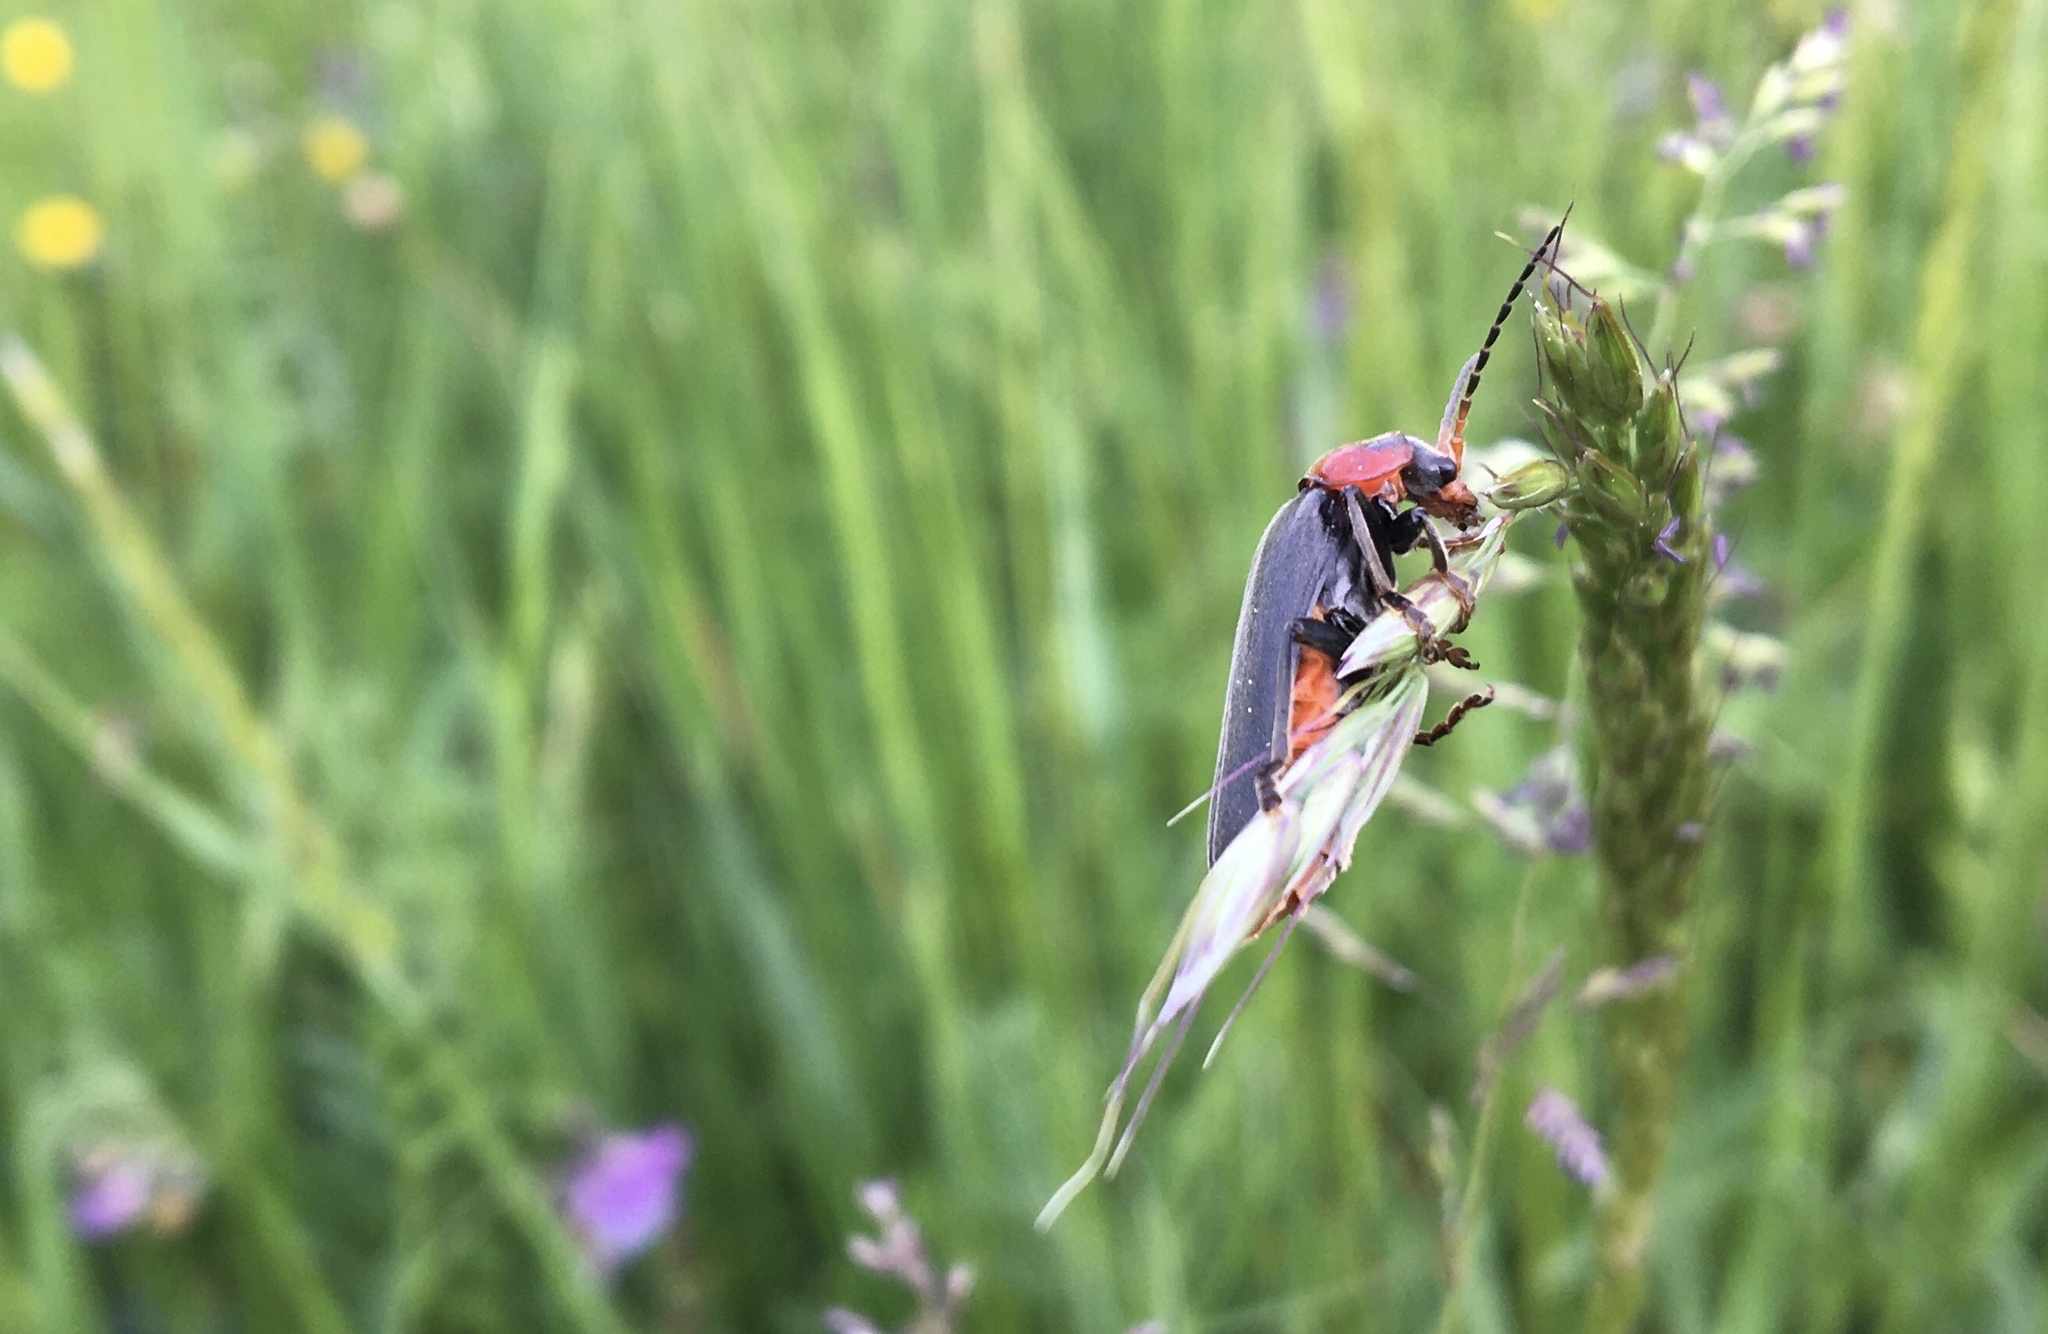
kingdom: Animalia
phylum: Arthropoda
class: Insecta
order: Coleoptera
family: Cantharidae
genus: Cantharis
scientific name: Cantharis fusca
